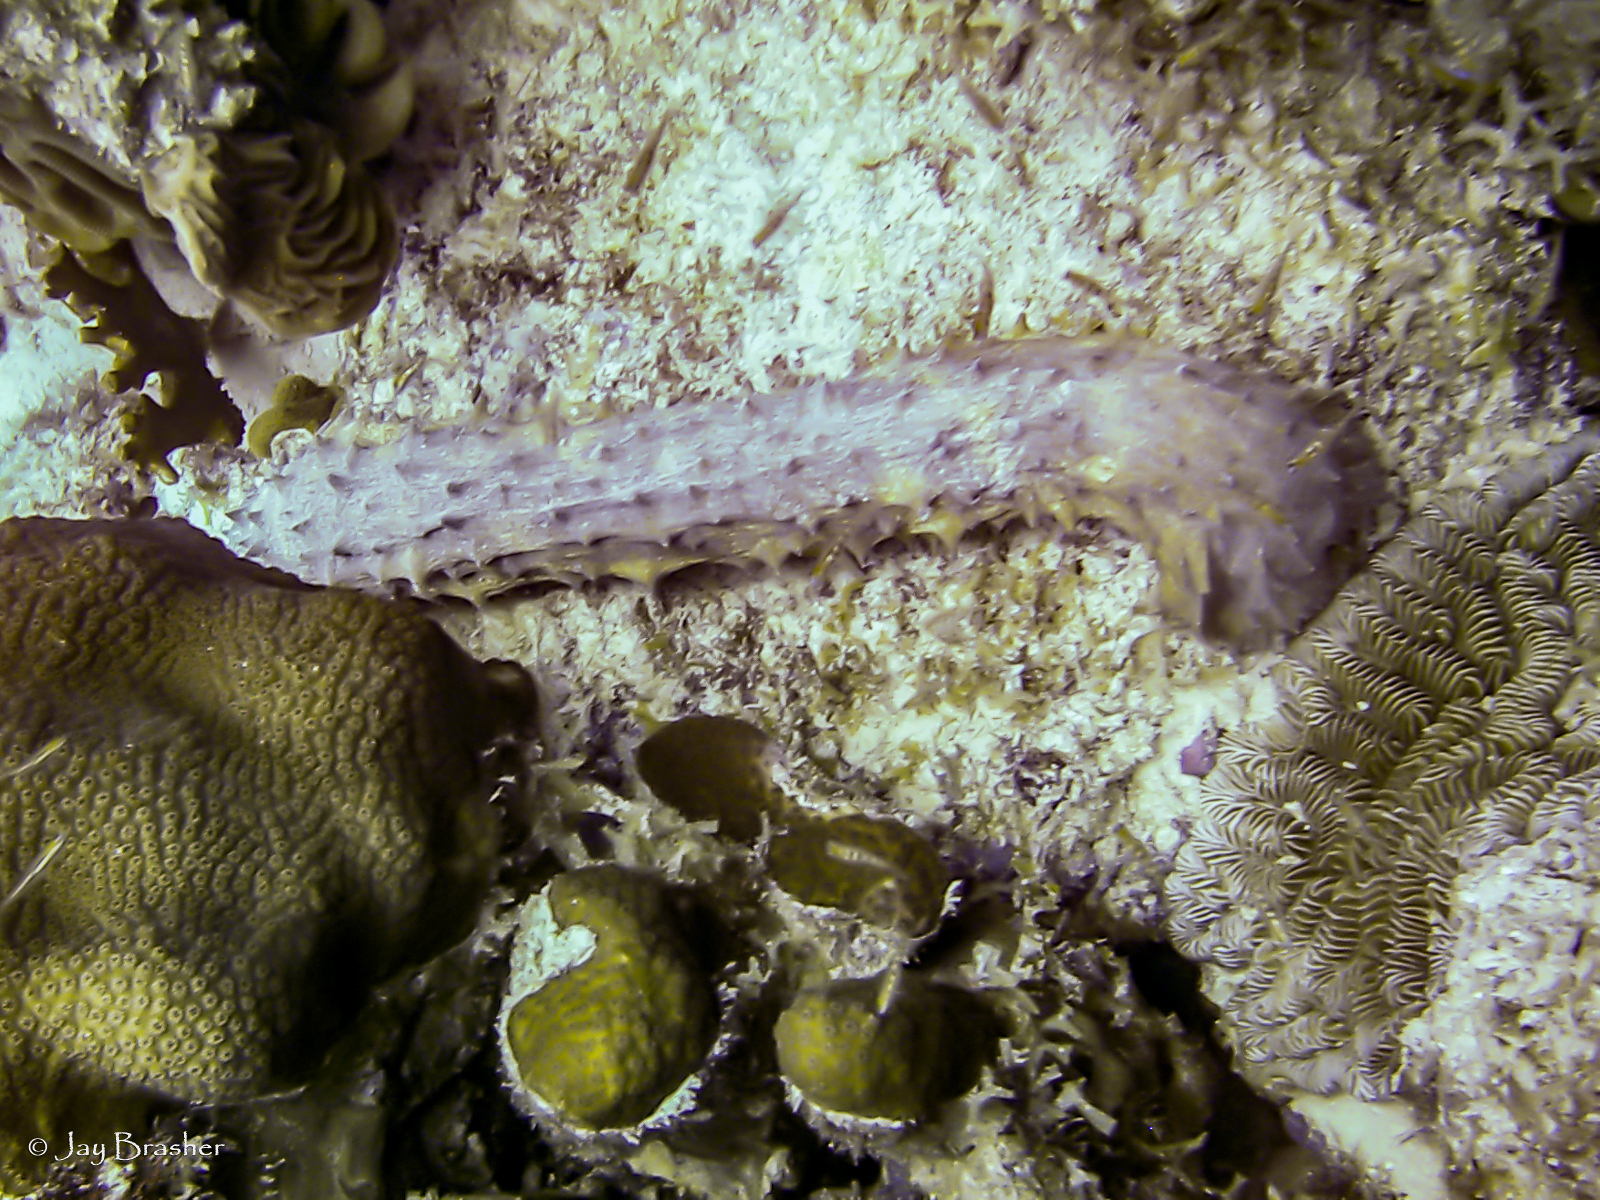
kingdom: Animalia
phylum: Echinodermata
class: Holothuroidea
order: Holothuriida
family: Holothuriidae
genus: Holothuria
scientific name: Holothuria thomasi
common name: Tiger tail sea cocumber
